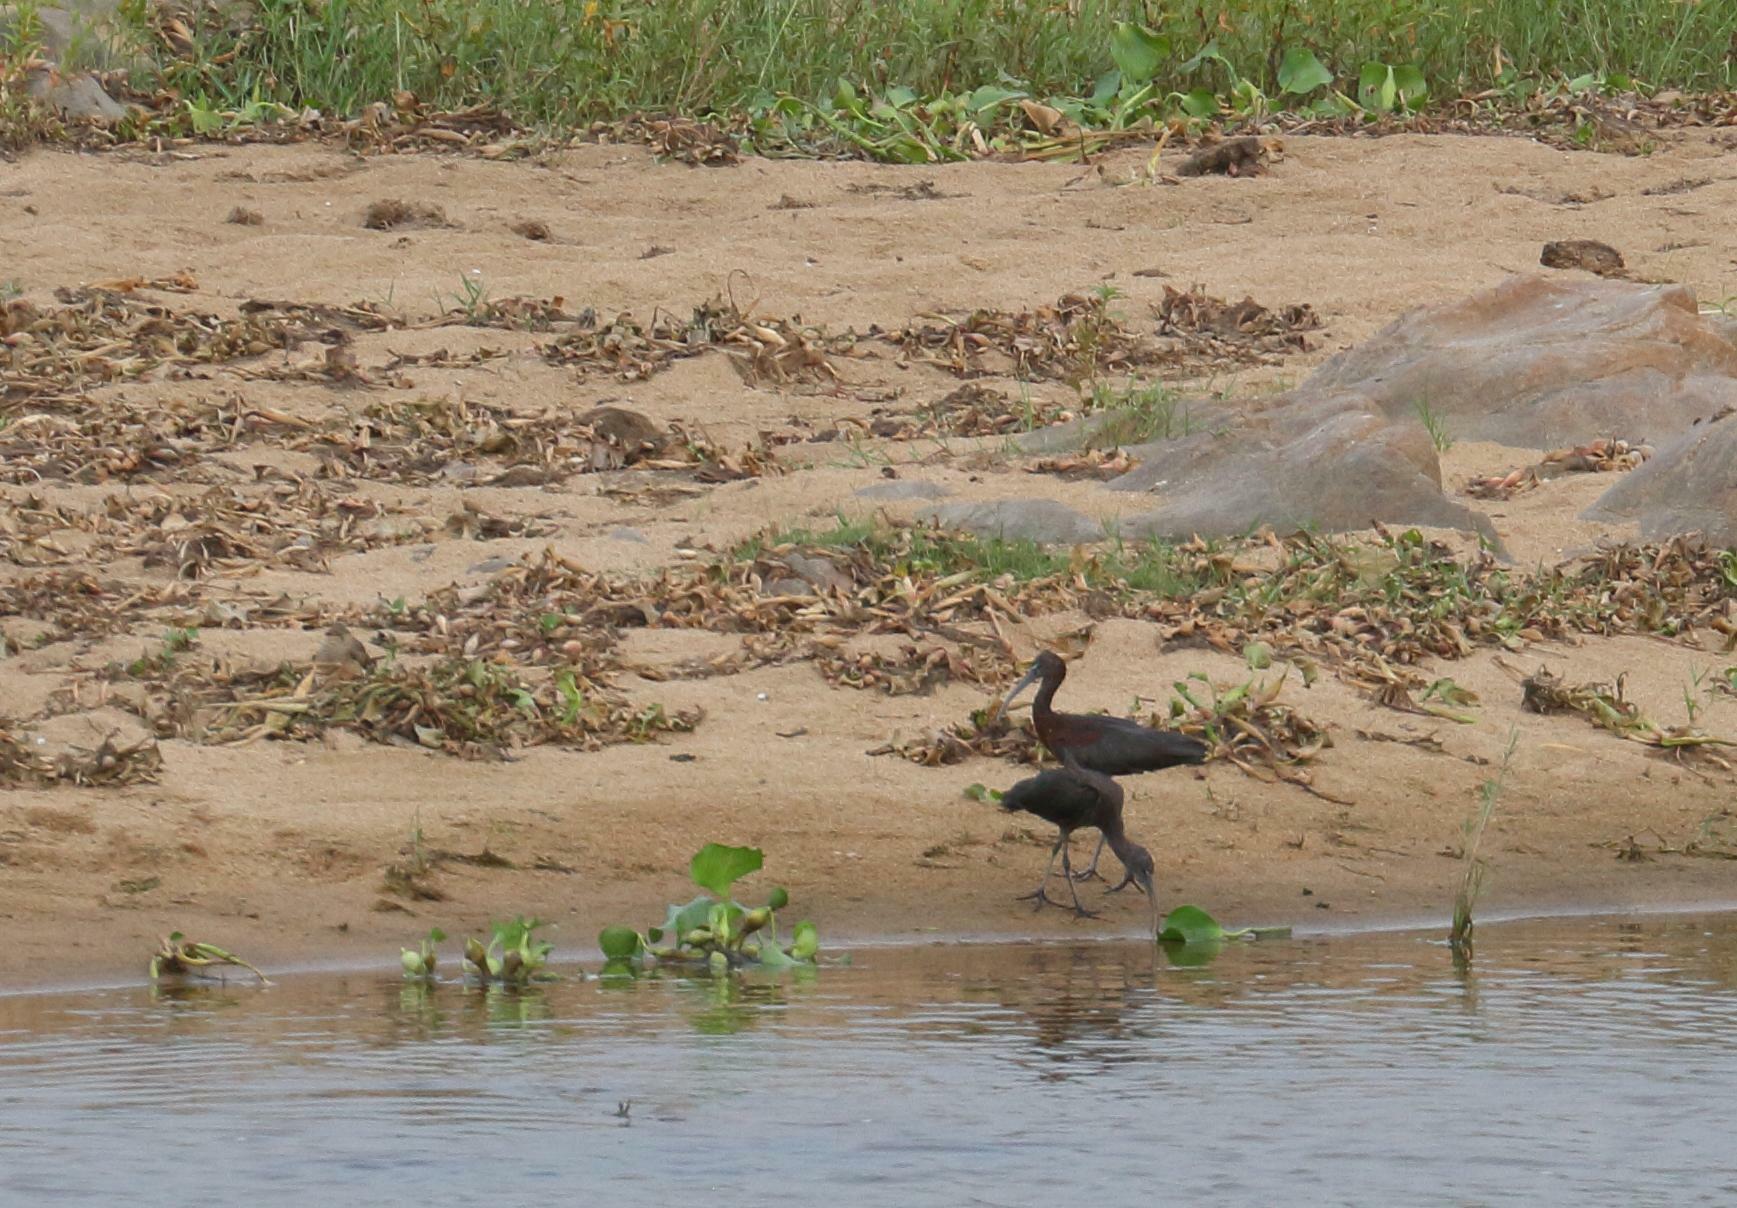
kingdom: Animalia
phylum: Chordata
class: Aves
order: Pelecaniformes
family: Threskiornithidae
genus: Plegadis
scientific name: Plegadis falcinellus
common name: Glossy ibis
